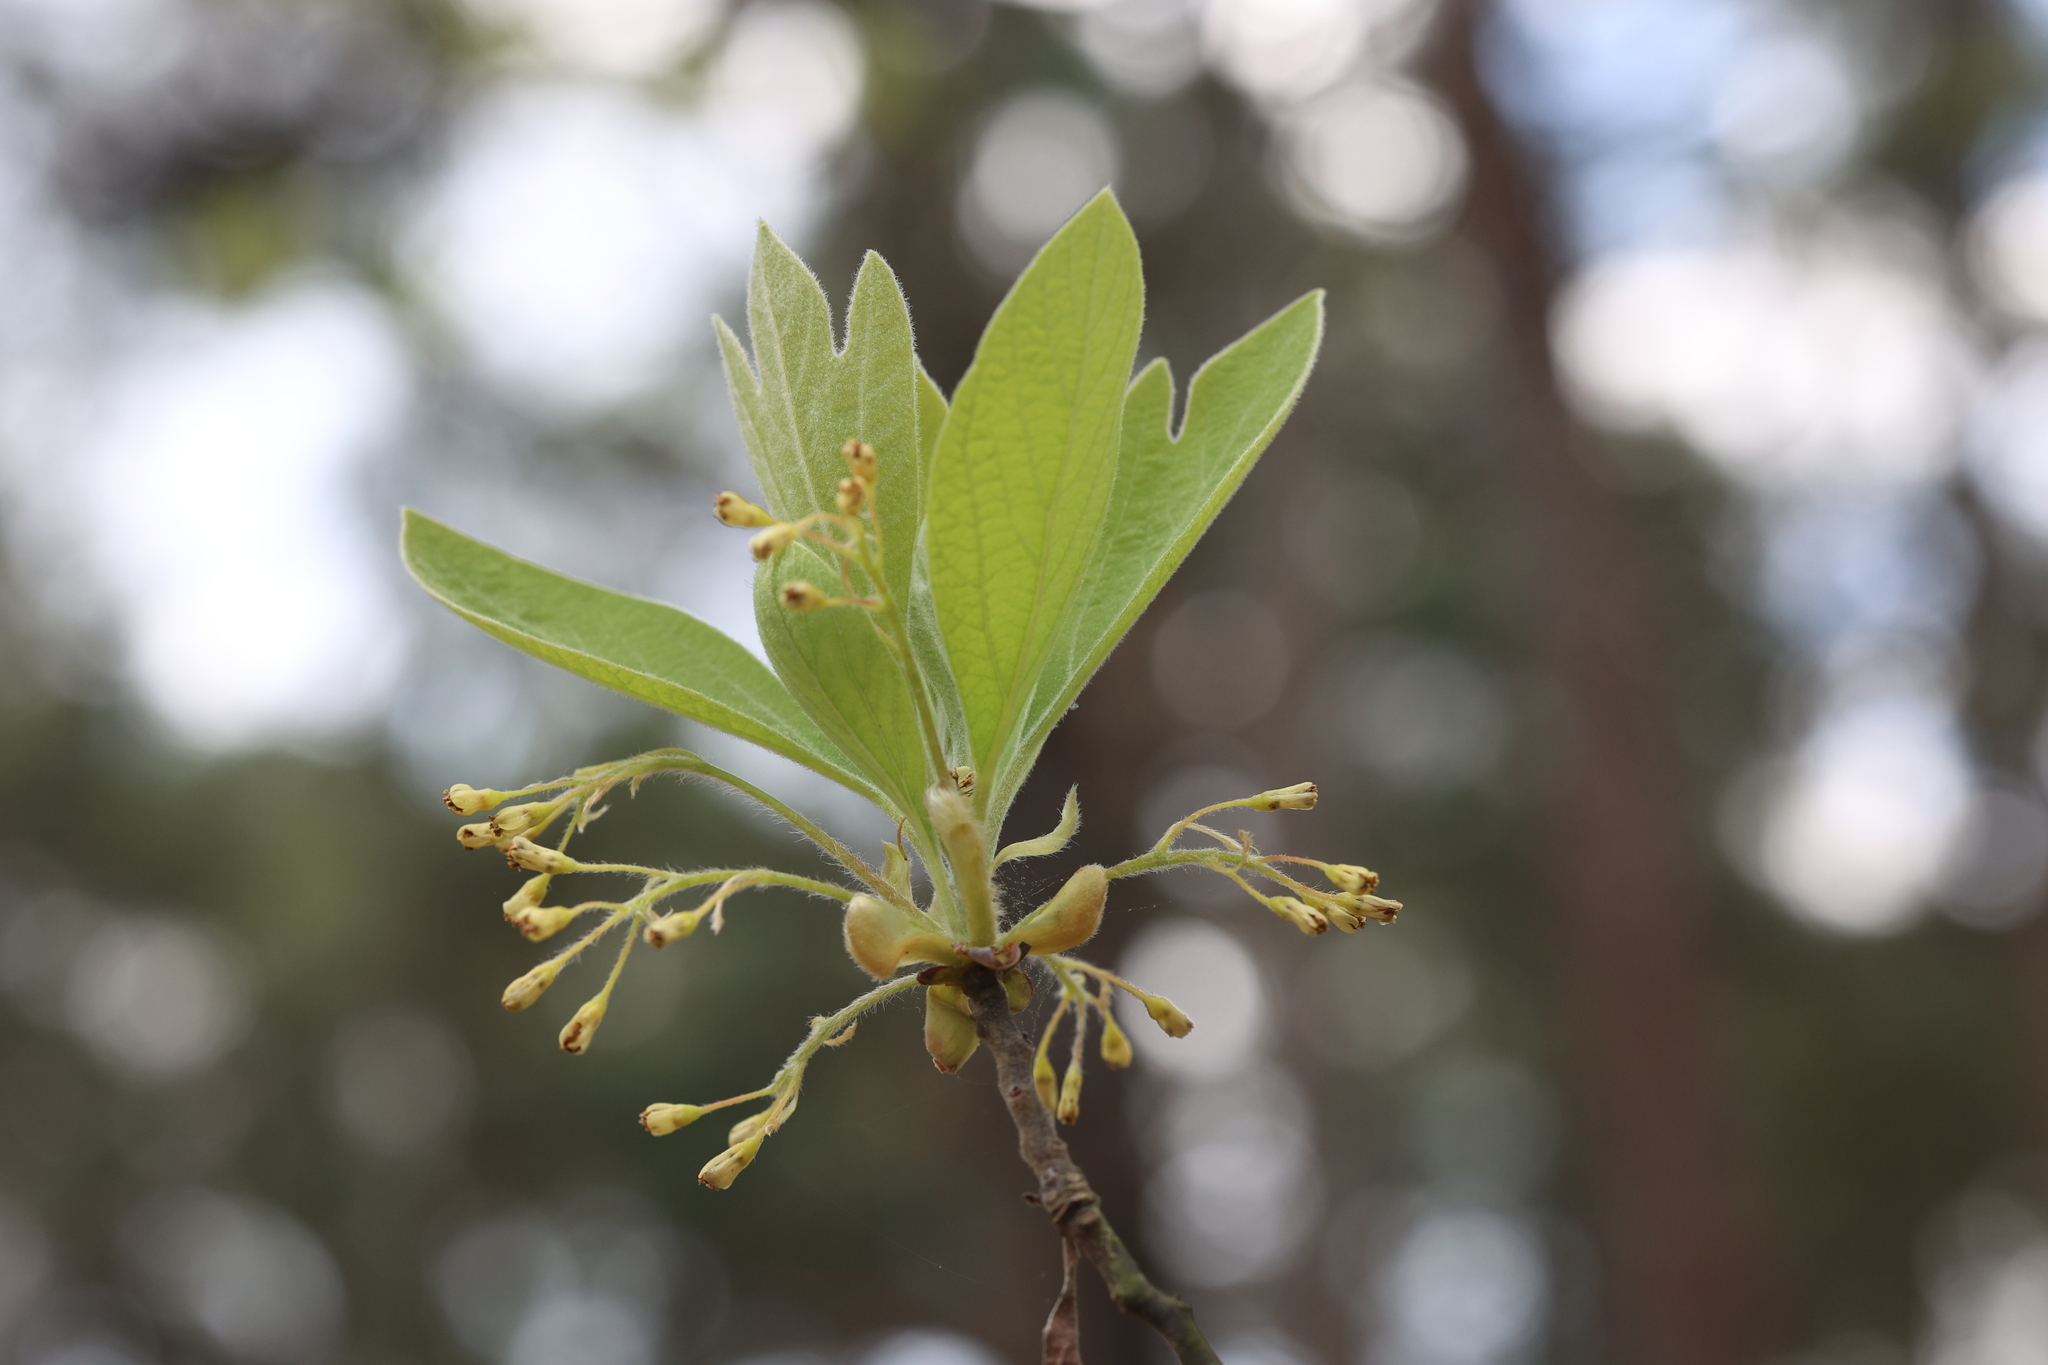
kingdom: Plantae
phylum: Tracheophyta
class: Magnoliopsida
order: Laurales
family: Lauraceae
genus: Sassafras
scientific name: Sassafras albidum
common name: Sassafras
